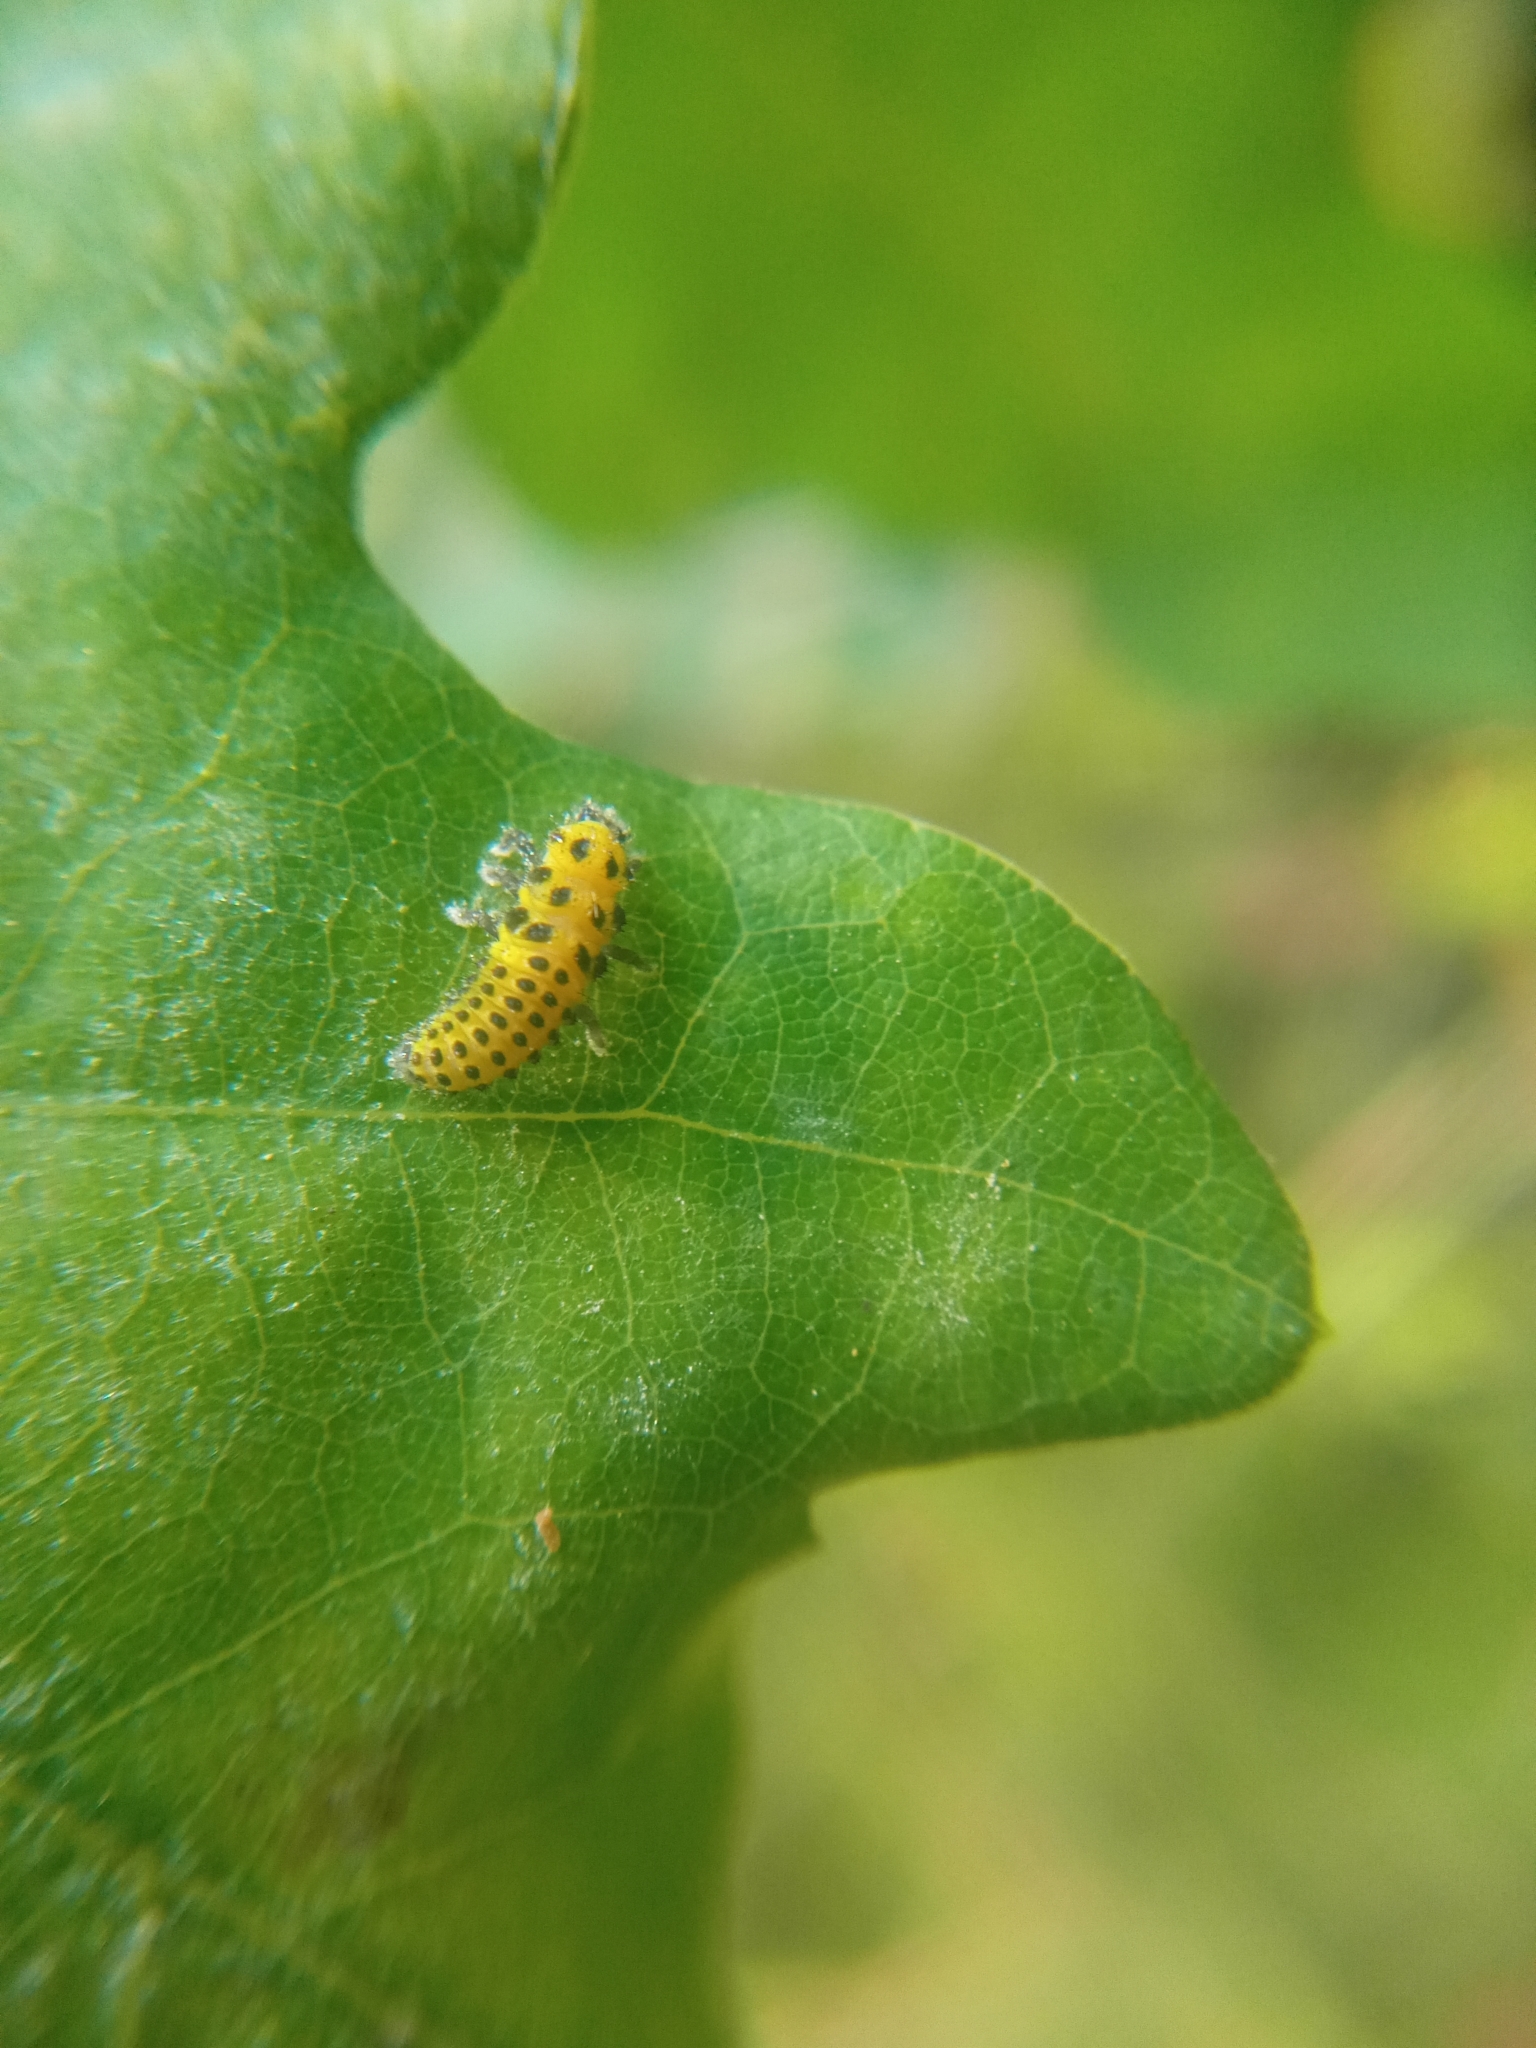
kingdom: Animalia
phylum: Arthropoda
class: Insecta
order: Coleoptera
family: Coccinellidae
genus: Psyllobora
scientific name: Psyllobora vigintiduopunctata
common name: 22-spot ladybird
